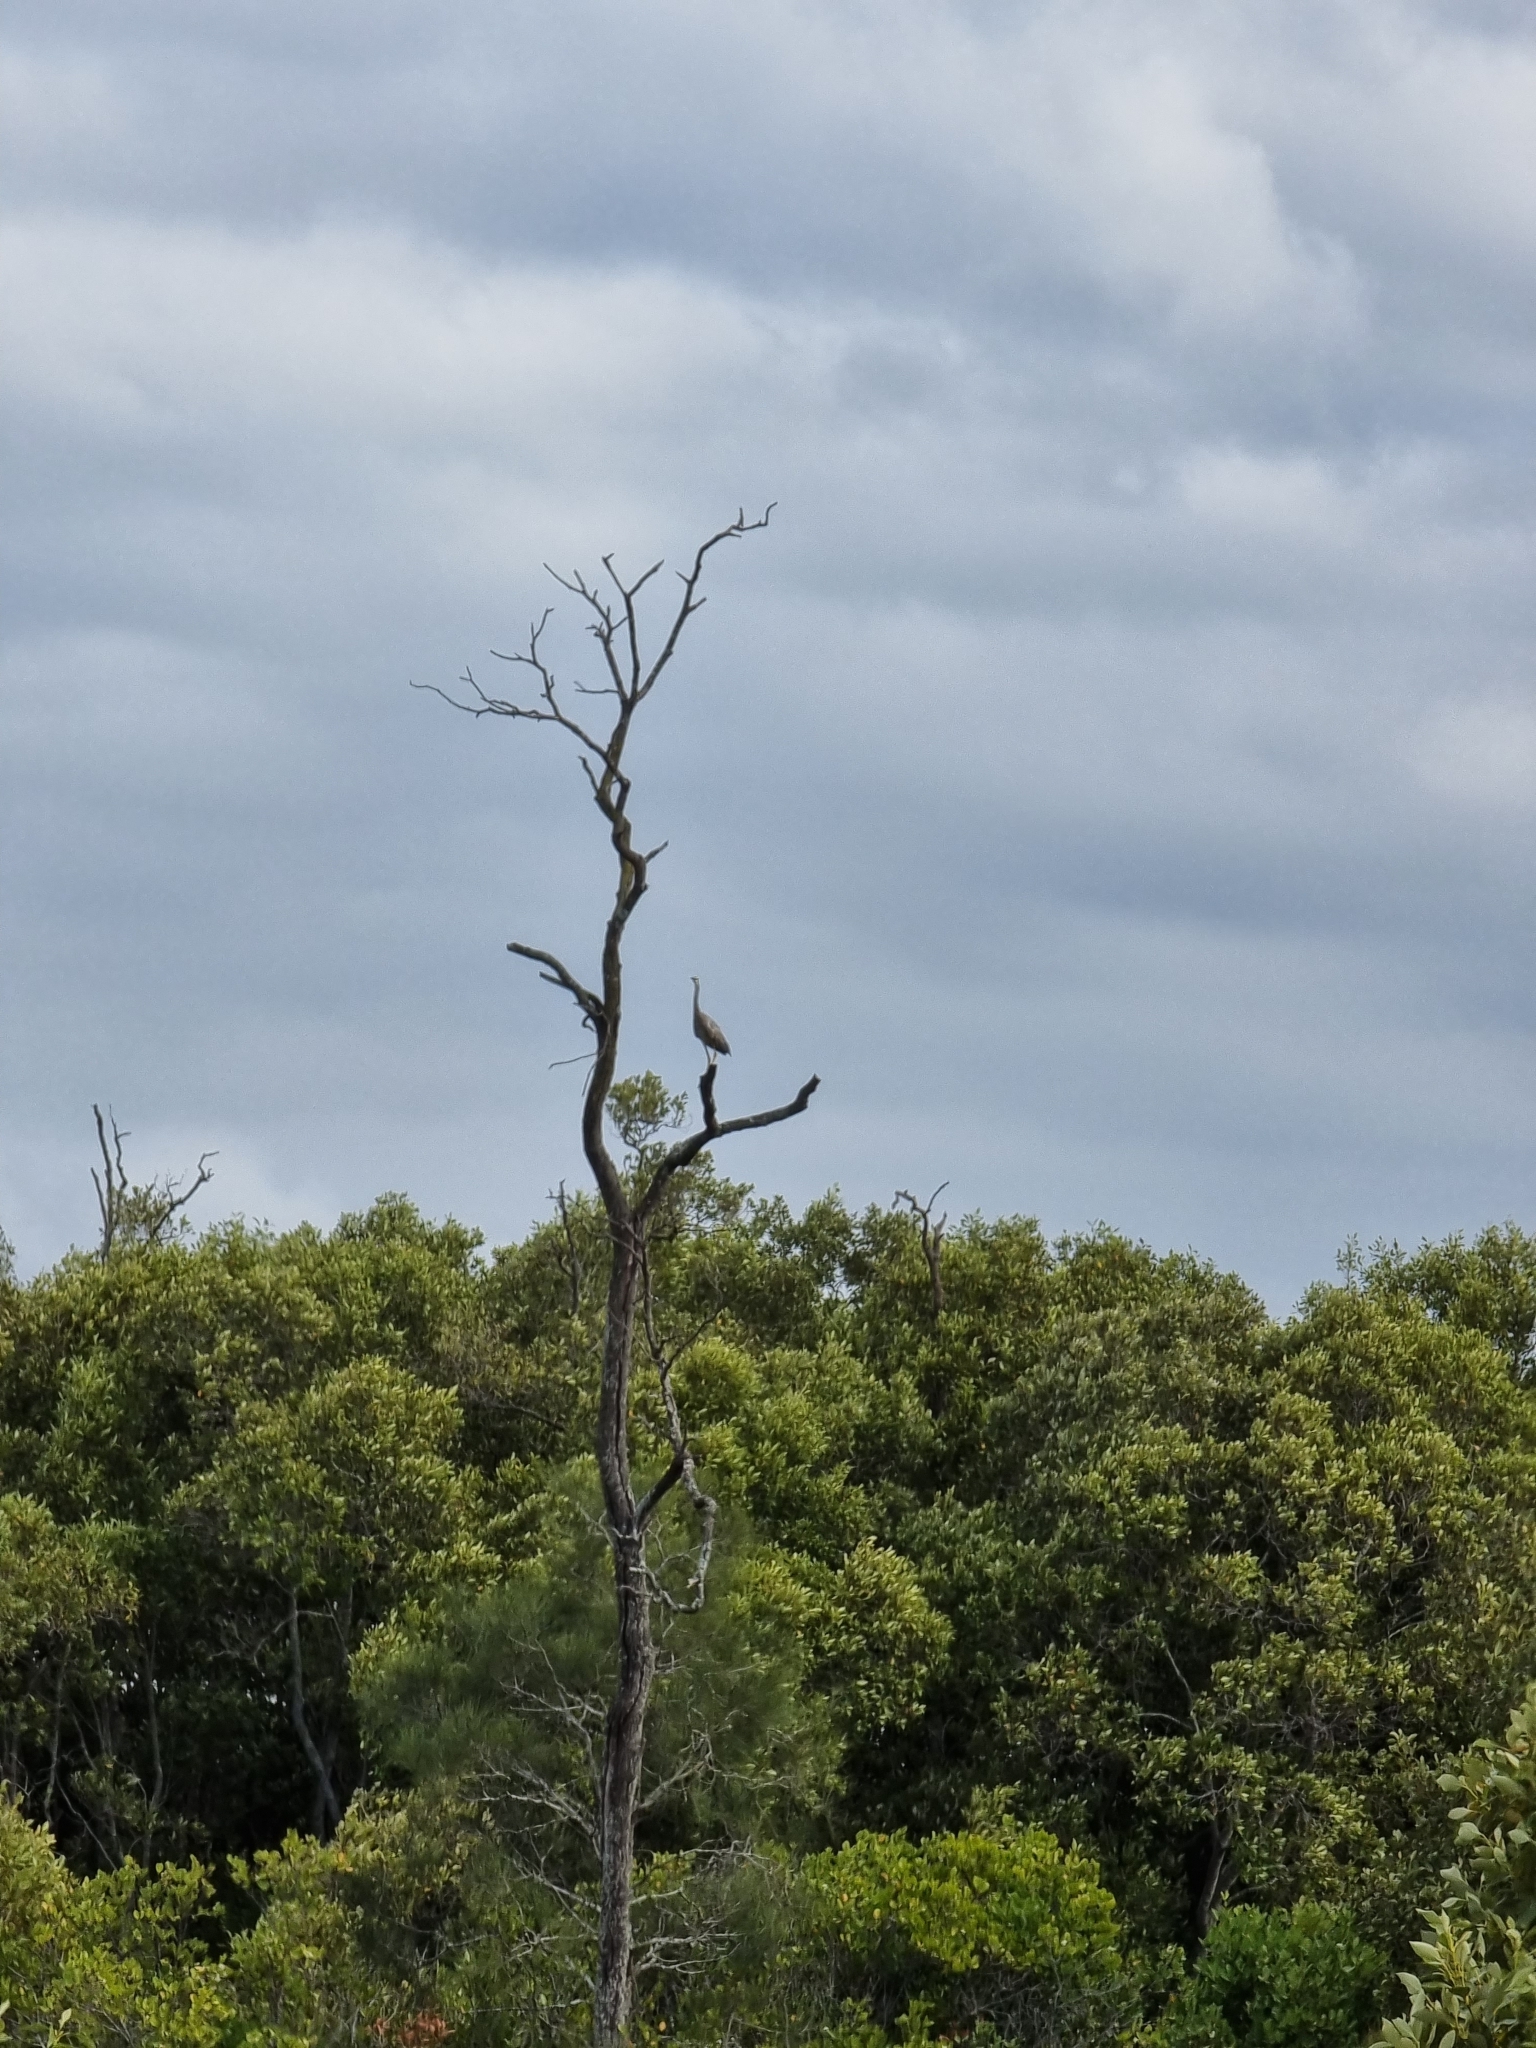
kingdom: Animalia
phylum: Chordata
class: Aves
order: Pelecaniformes
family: Ardeidae
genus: Egretta
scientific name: Egretta novaehollandiae
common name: White-faced heron
